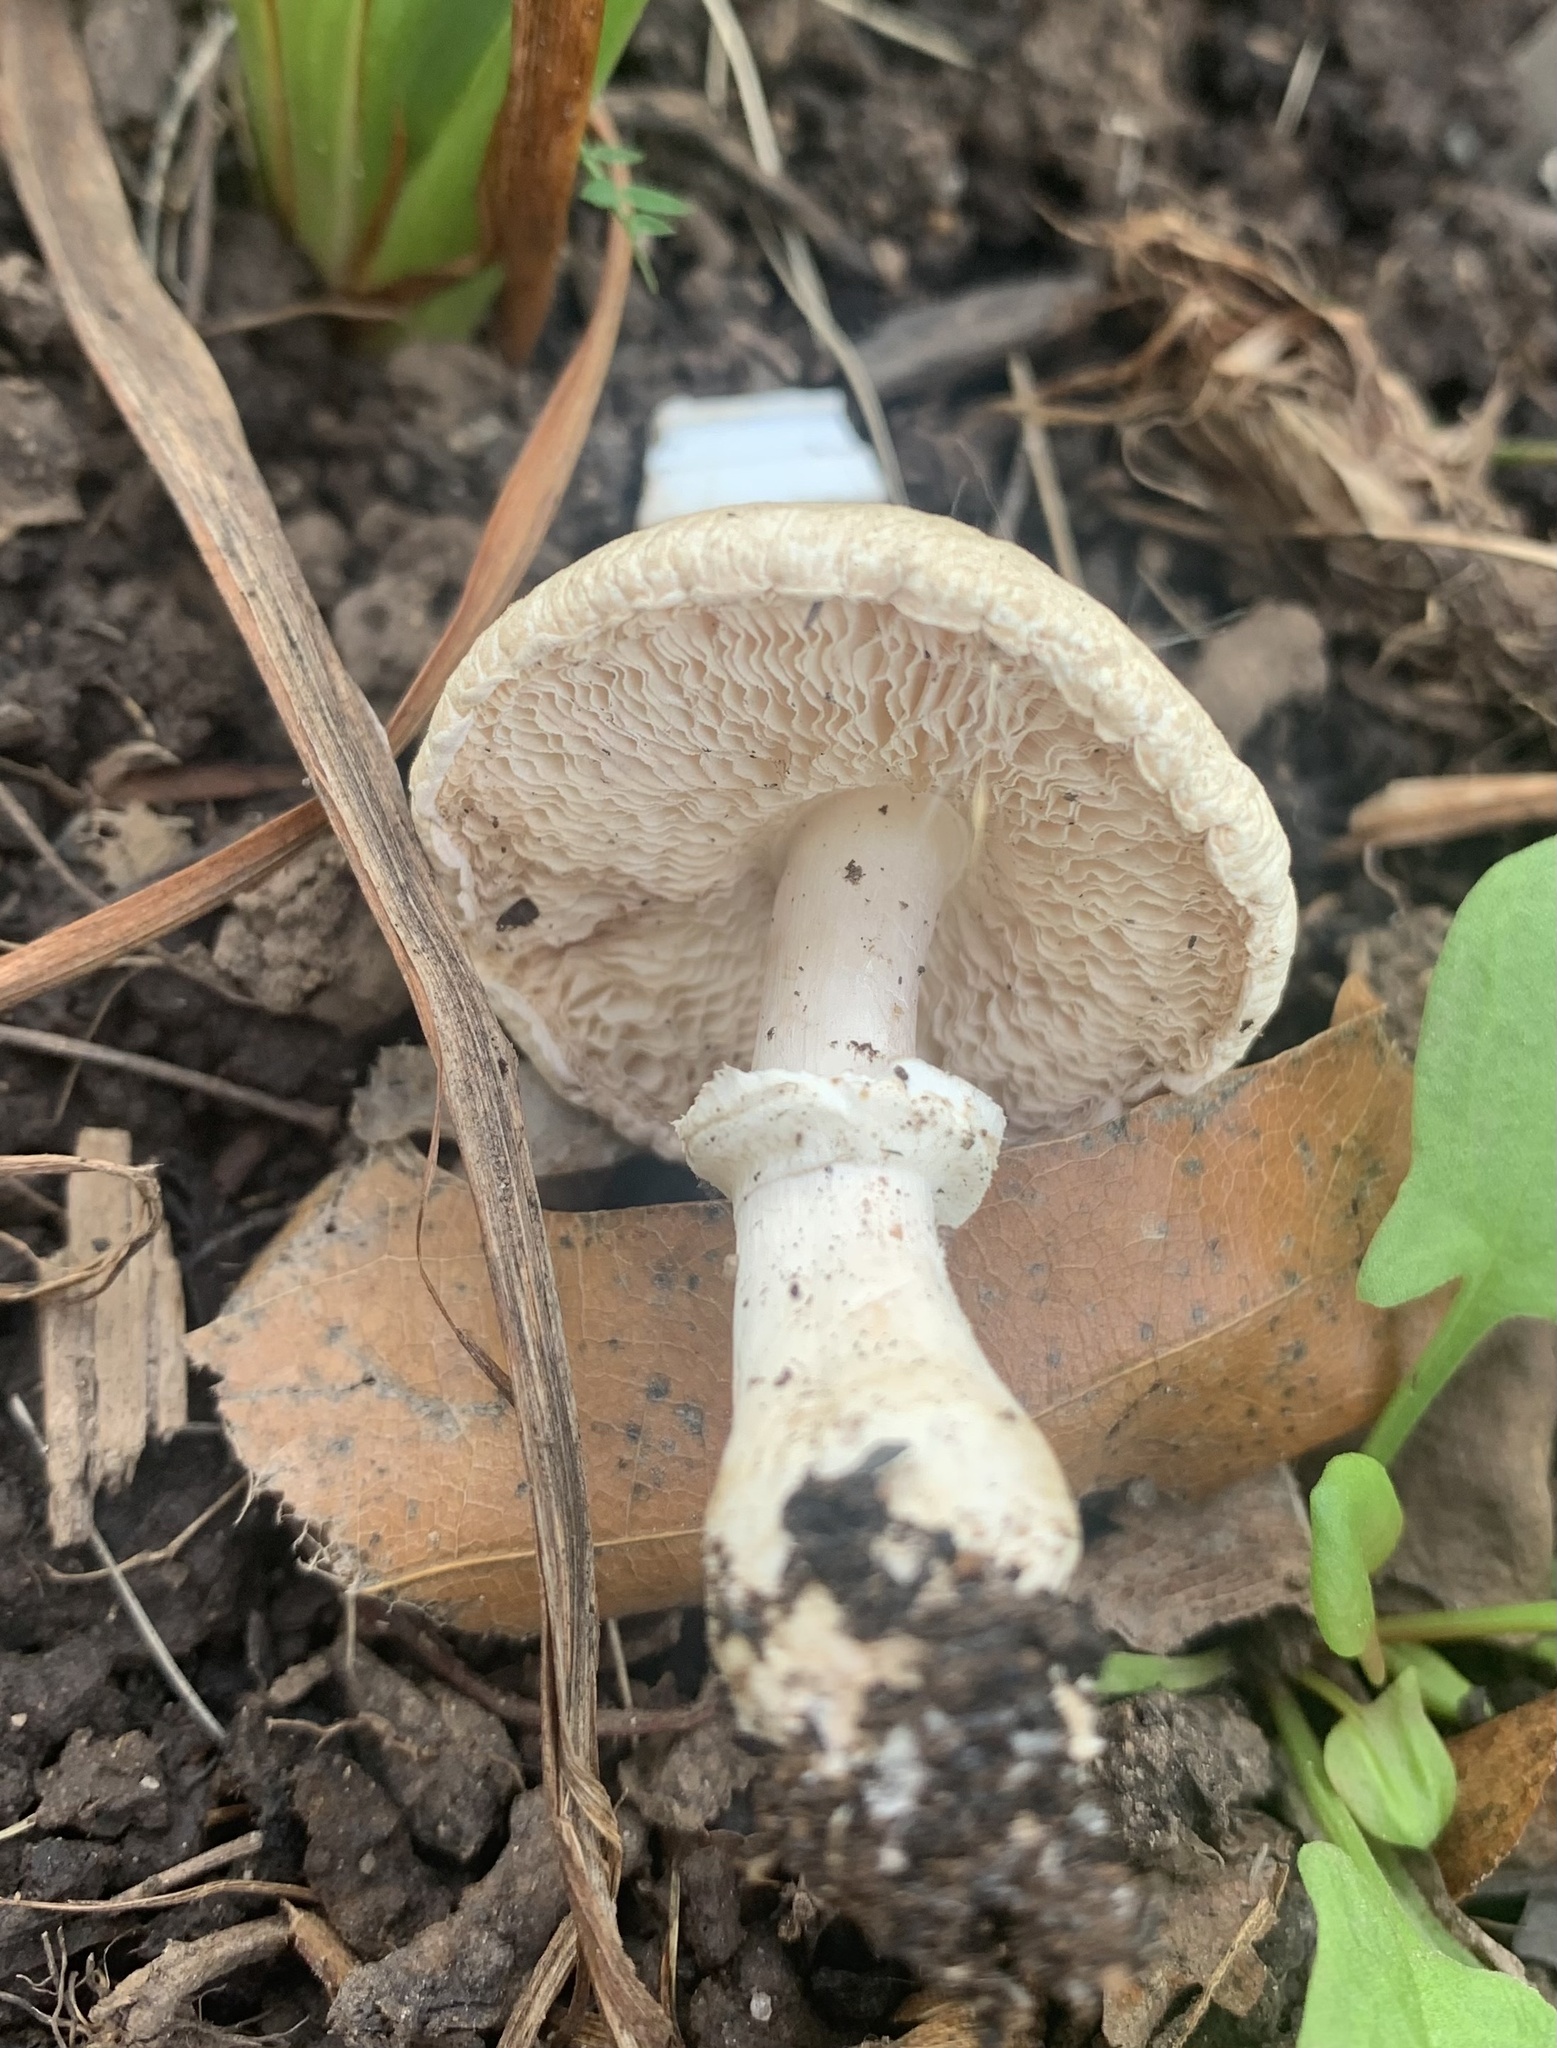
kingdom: Fungi
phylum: Basidiomycota
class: Agaricomycetes
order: Agaricales
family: Agaricaceae
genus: Leucoagaricus
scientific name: Leucoagaricus leucothites
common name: White dapperling
